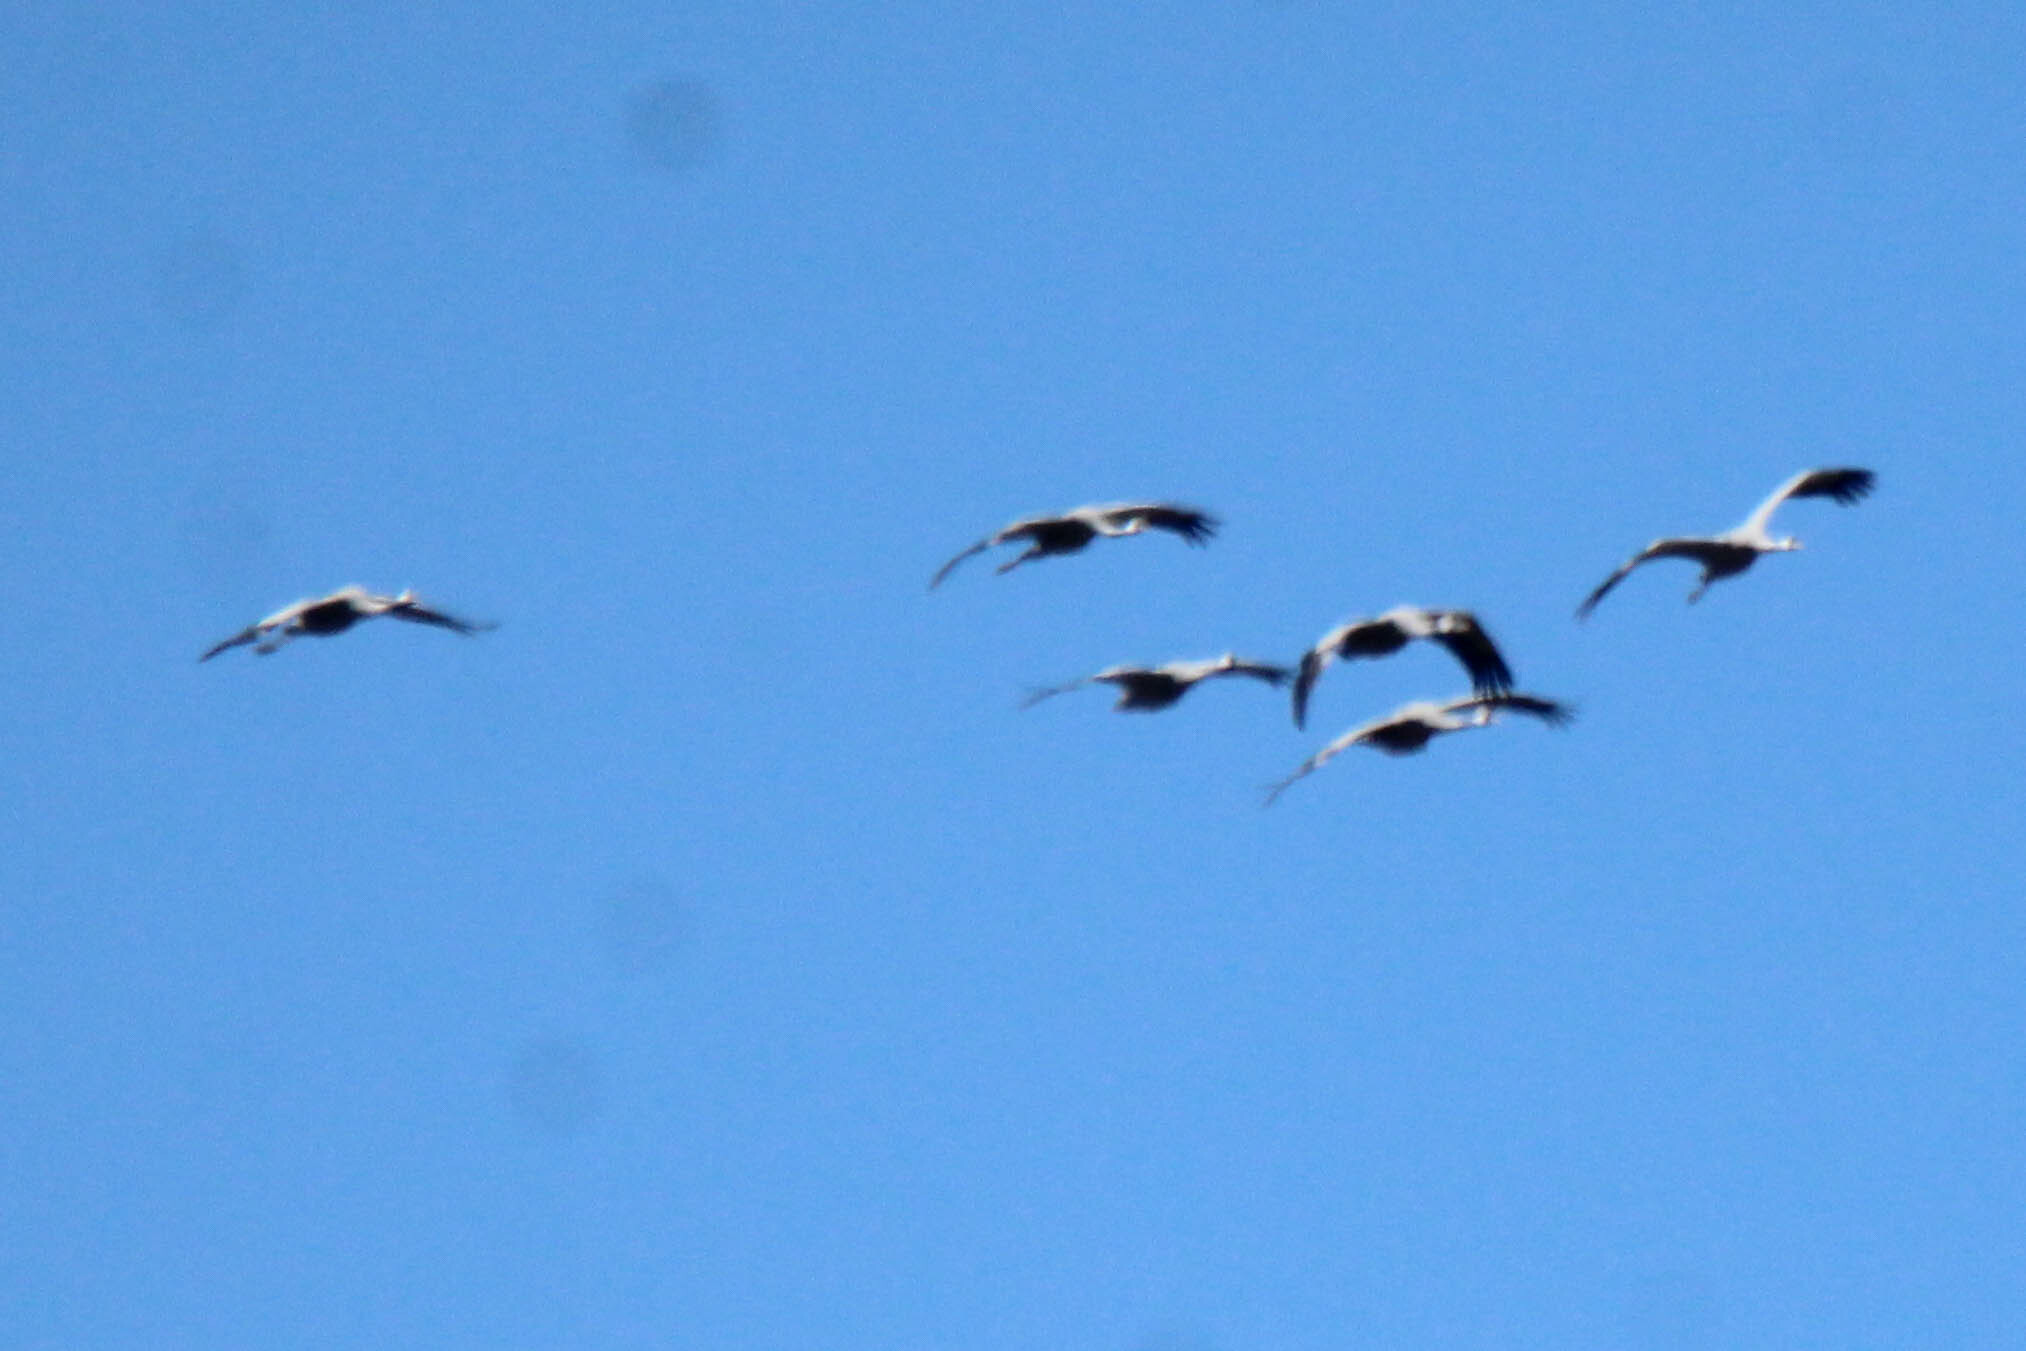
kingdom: Animalia
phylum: Chordata
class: Aves
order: Gruiformes
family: Gruidae
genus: Grus
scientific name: Grus grus
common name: Common crane
